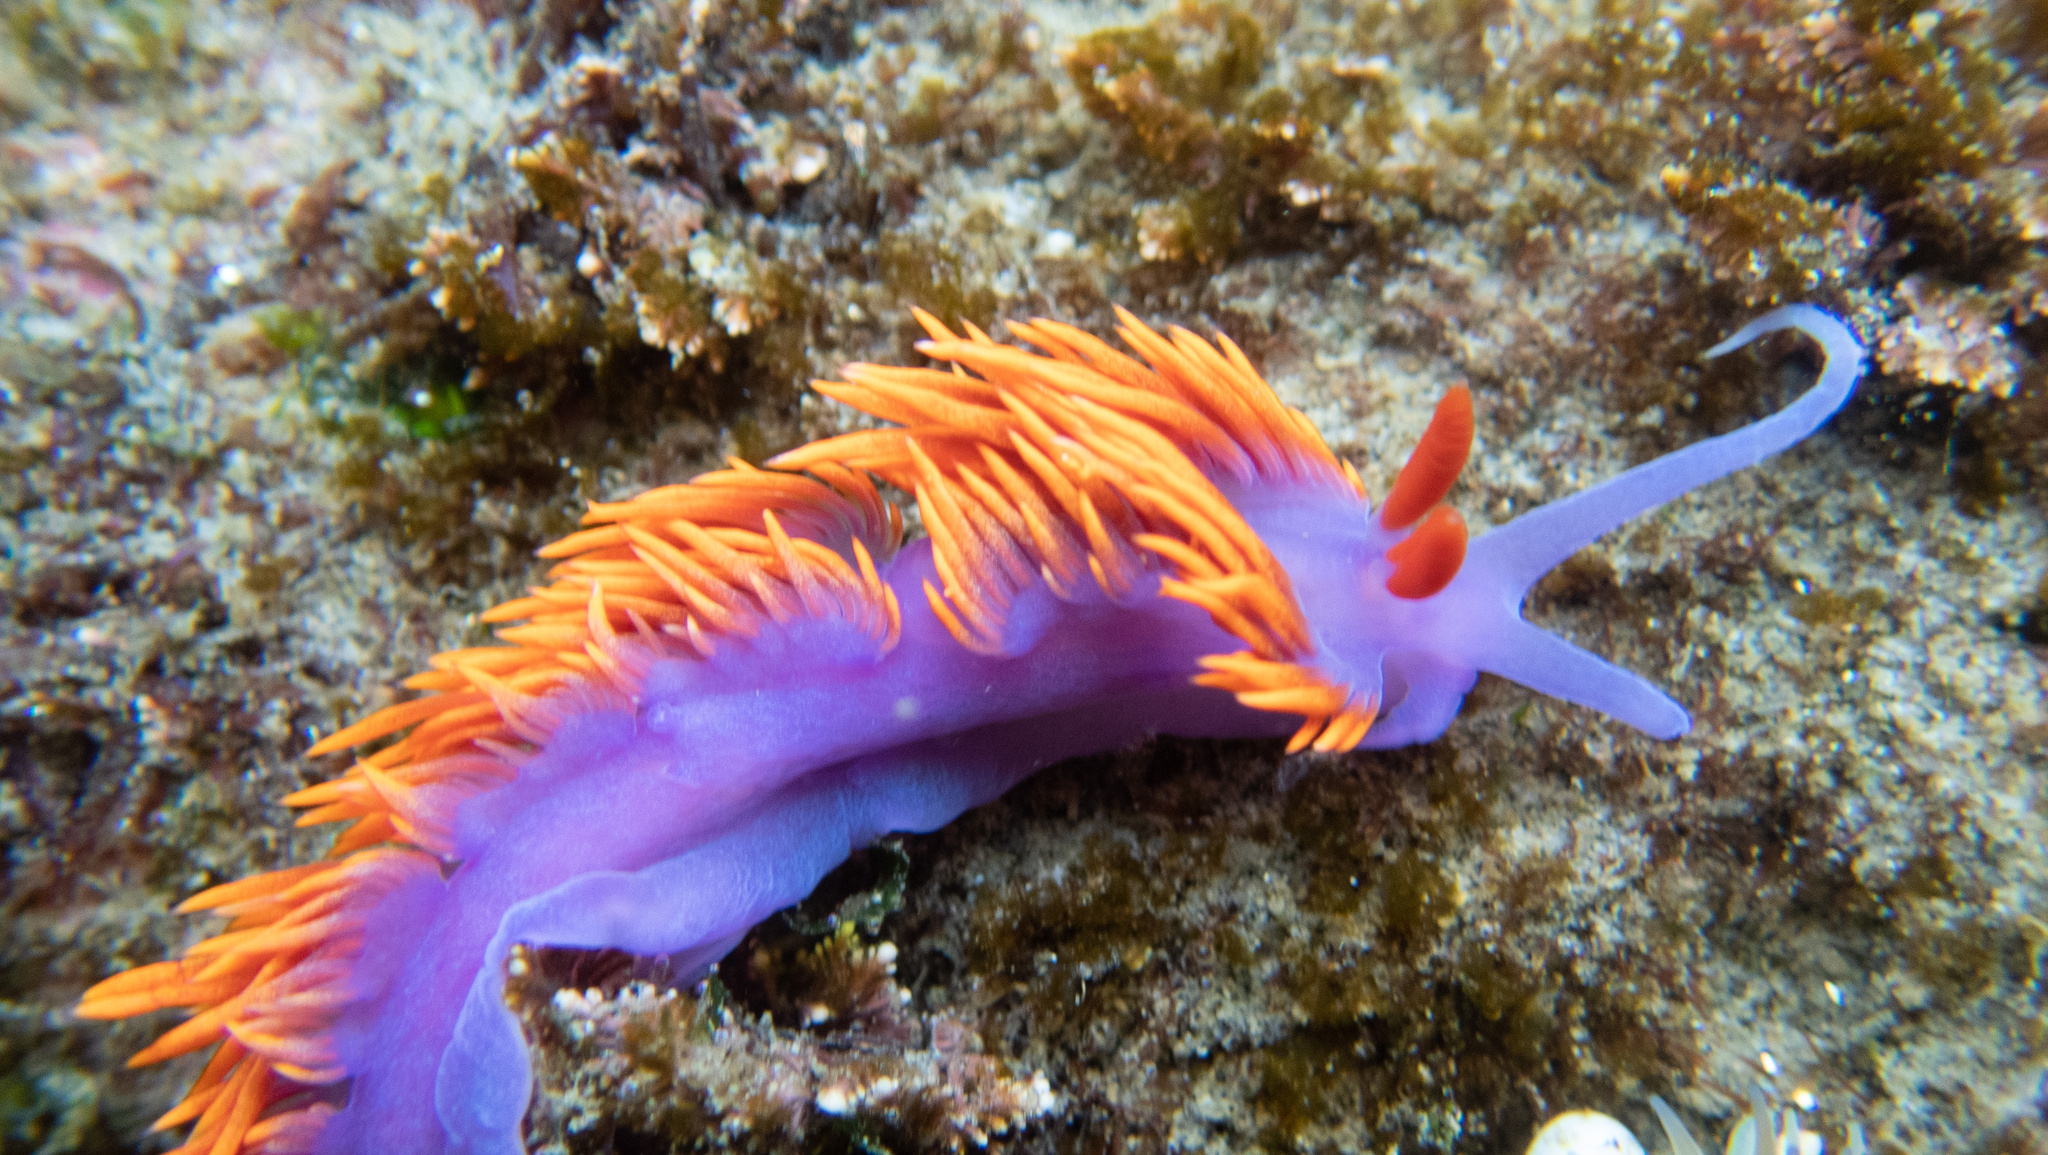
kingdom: Animalia
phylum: Mollusca
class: Gastropoda
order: Nudibranchia
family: Flabellinopsidae
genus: Flabellinopsis
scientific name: Flabellinopsis iodinea
